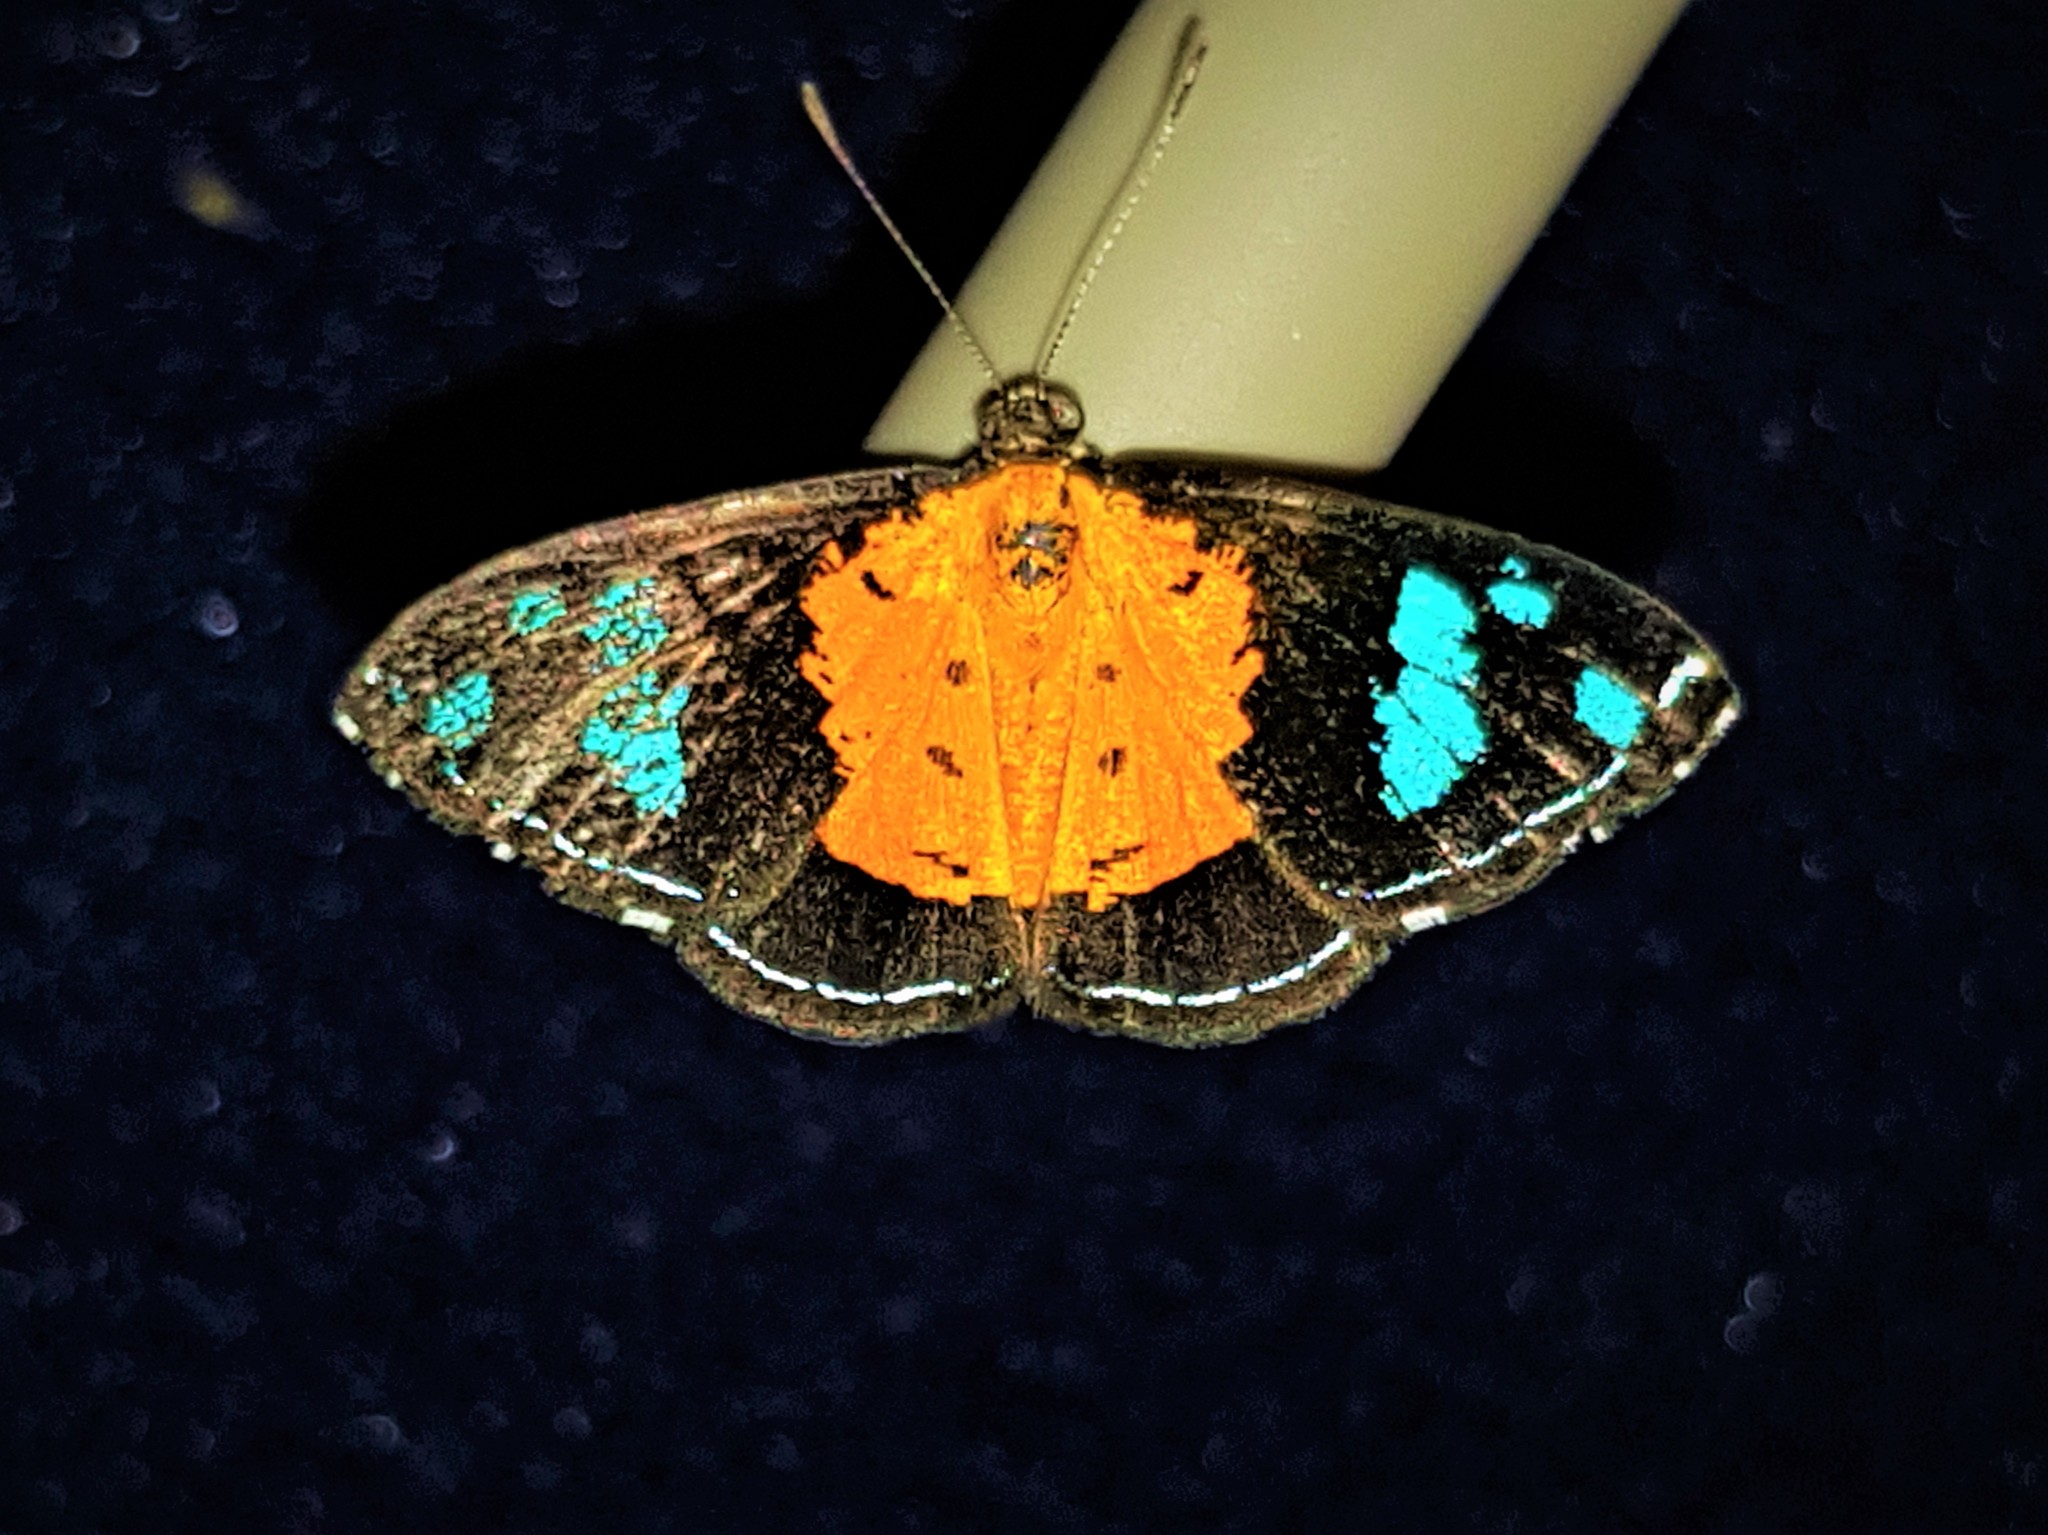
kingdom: Animalia
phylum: Arthropoda
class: Insecta
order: Lepidoptera
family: Lycaenidae
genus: Argyrogrammana
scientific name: Argyrogrammana sticheli
